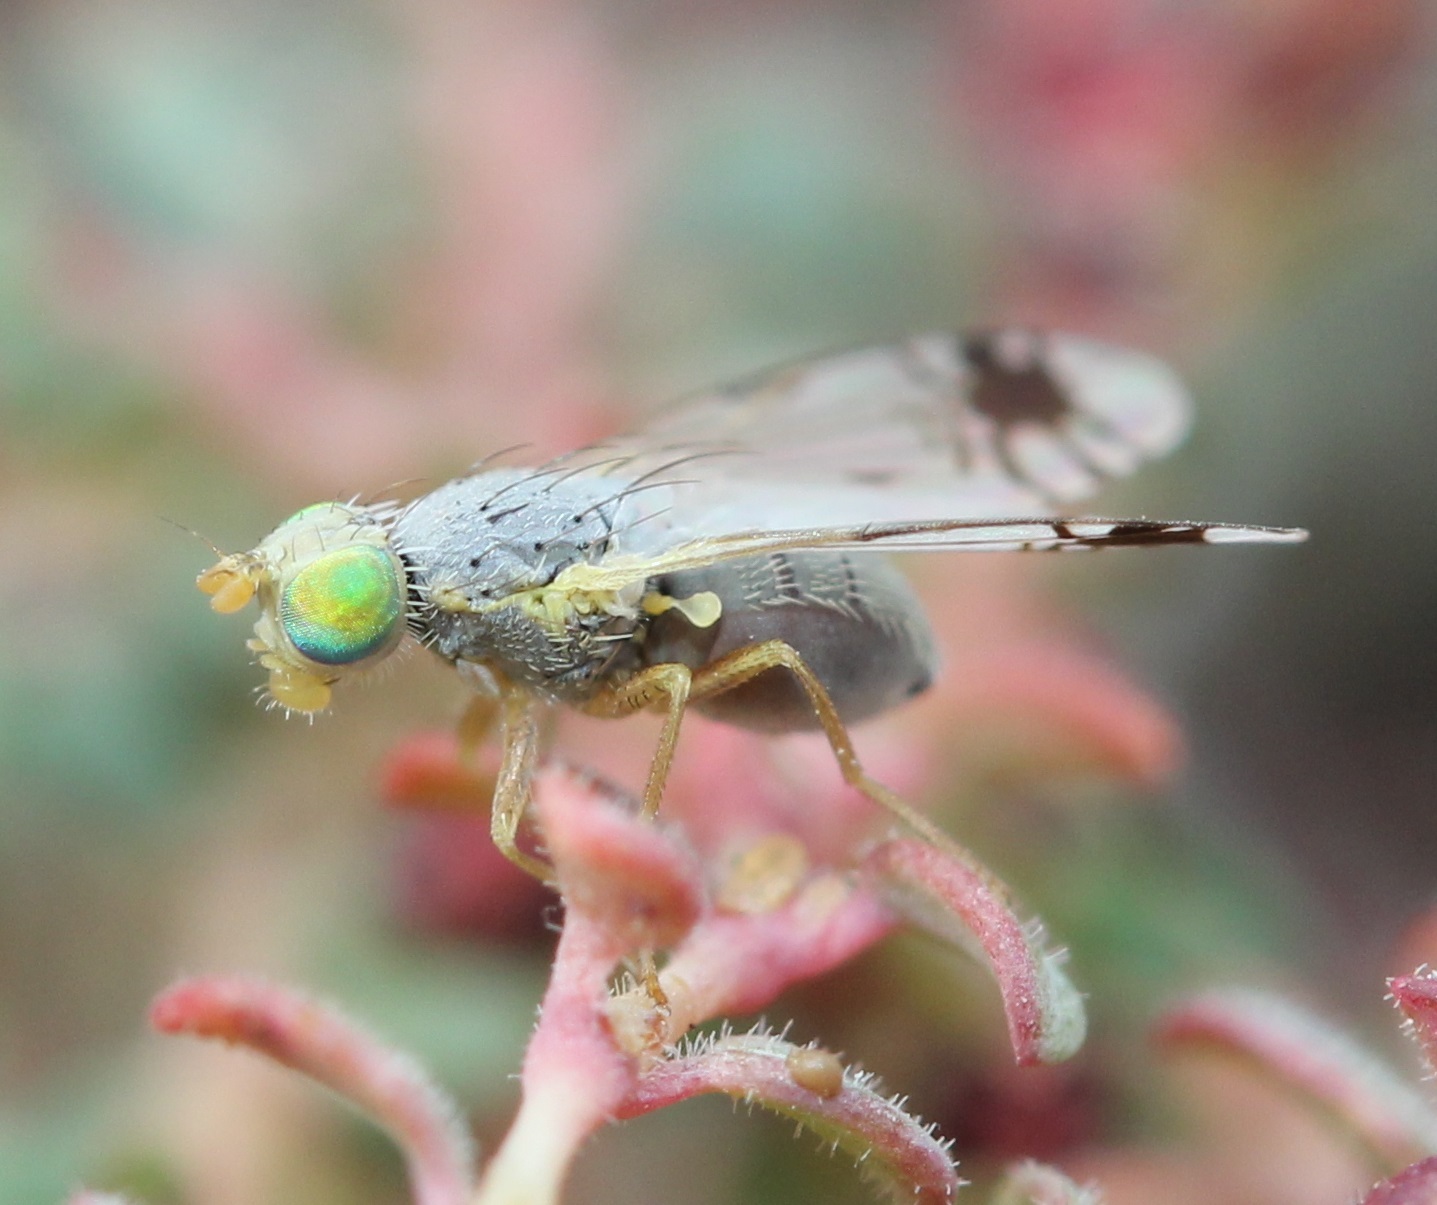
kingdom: Animalia
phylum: Arthropoda
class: Insecta
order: Diptera
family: Tephritidae
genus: Trupanea
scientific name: Trupanea radifera
